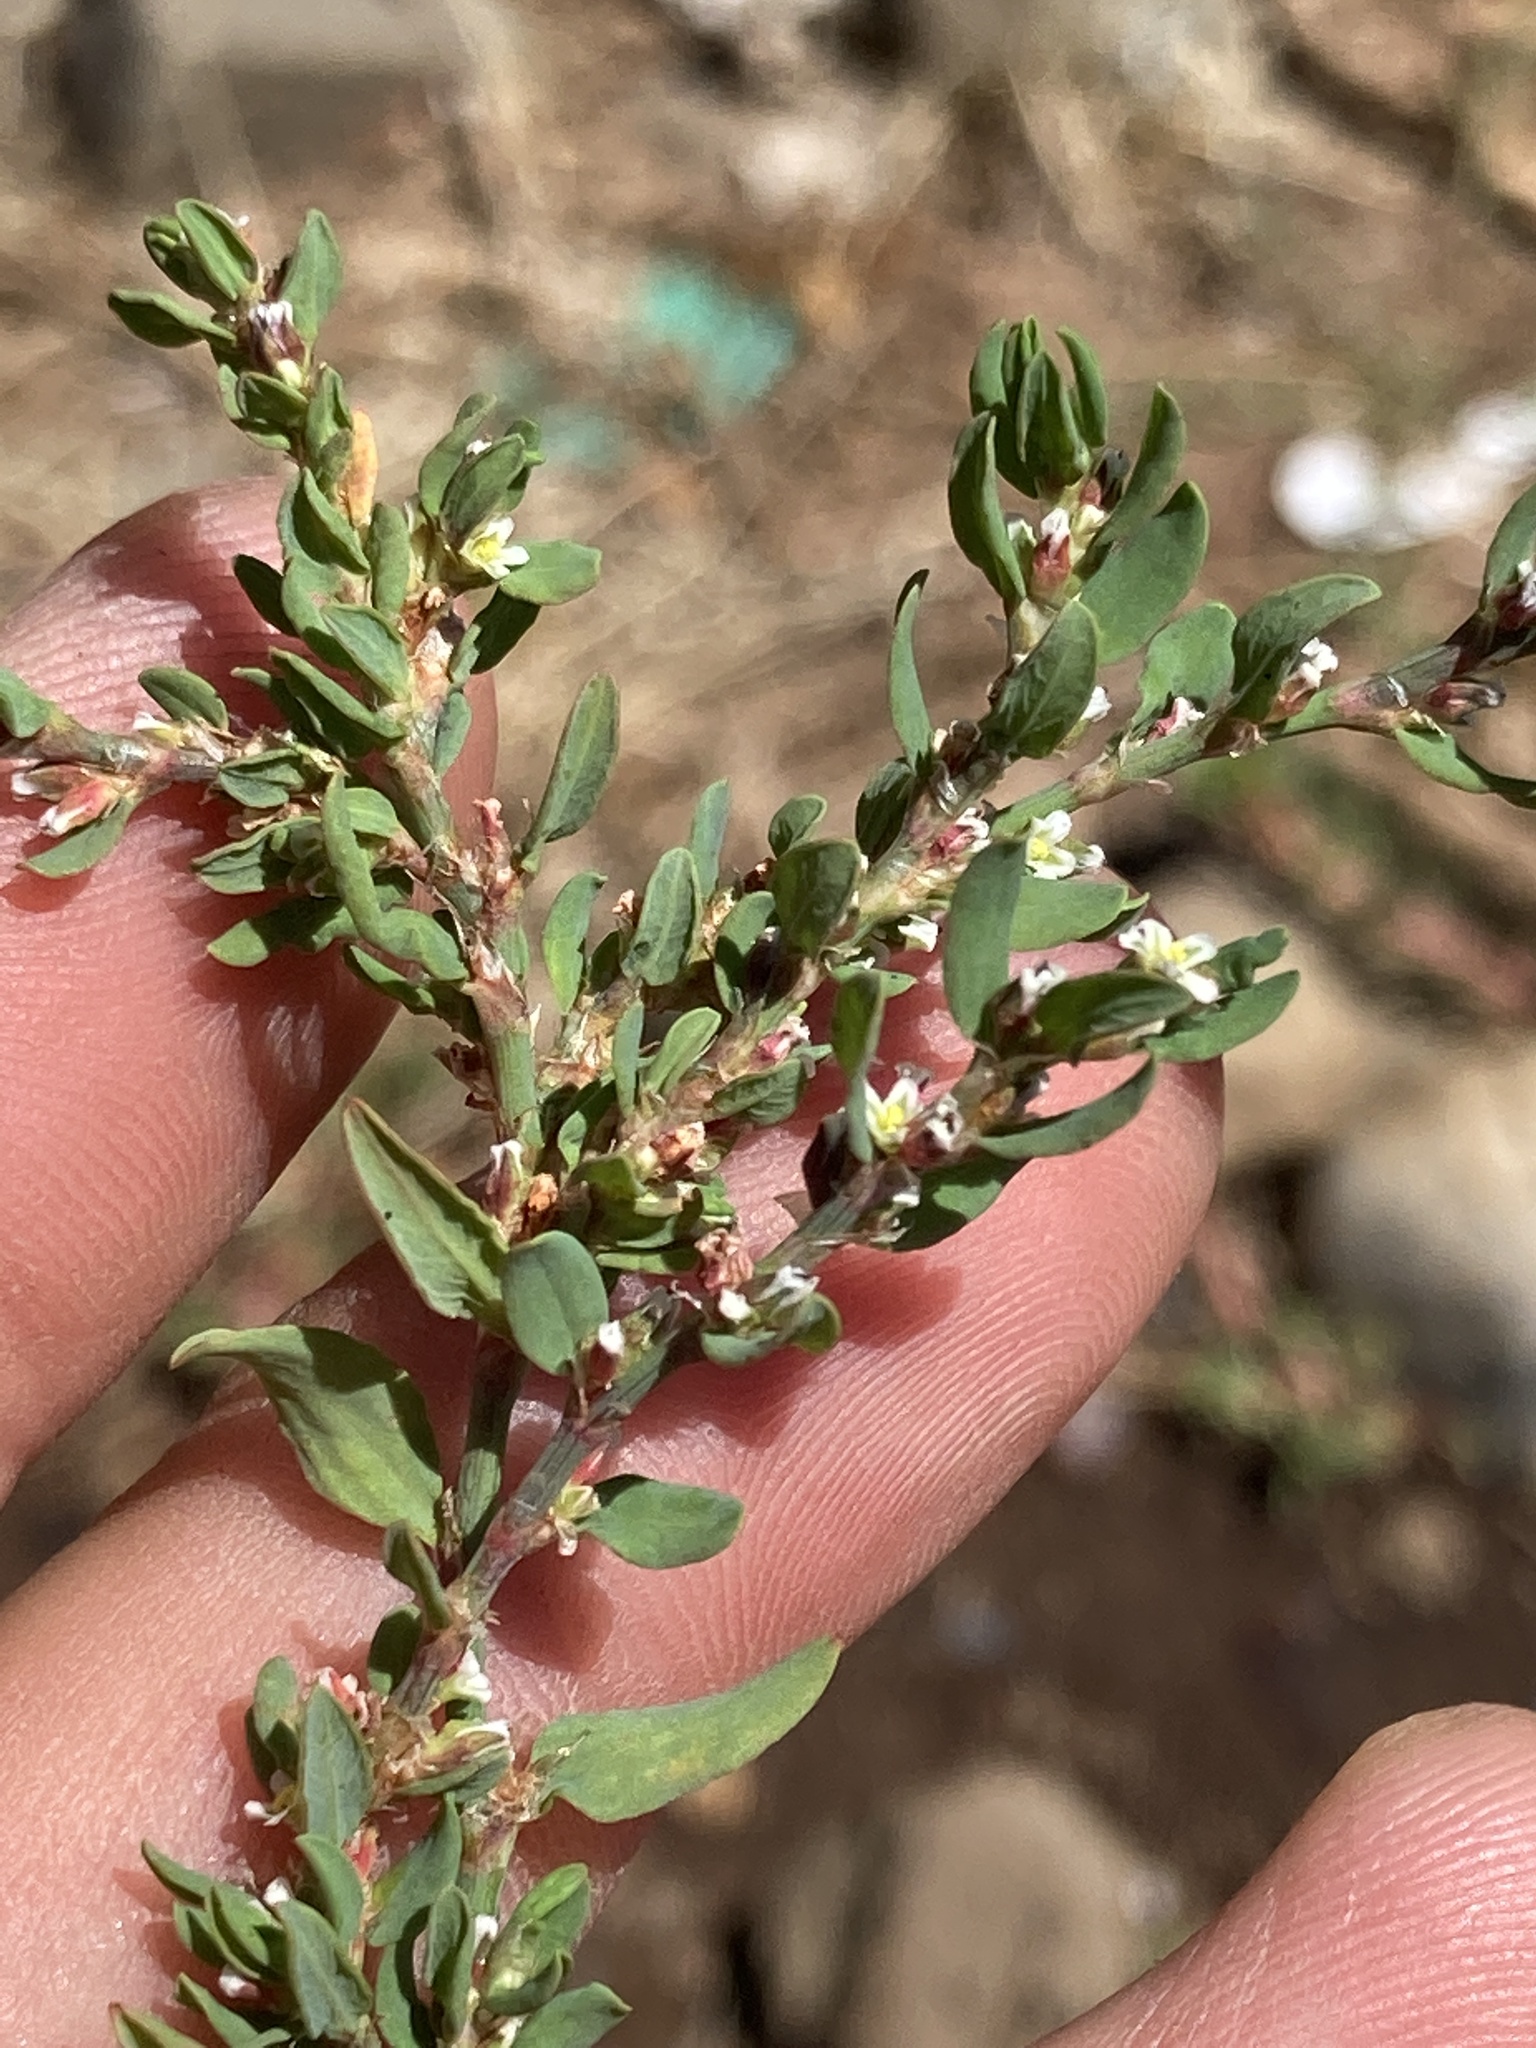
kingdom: Plantae
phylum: Tracheophyta
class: Magnoliopsida
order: Caryophyllales
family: Polygonaceae
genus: Polygonum
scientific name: Polygonum aviculare
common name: Prostrate knotweed
